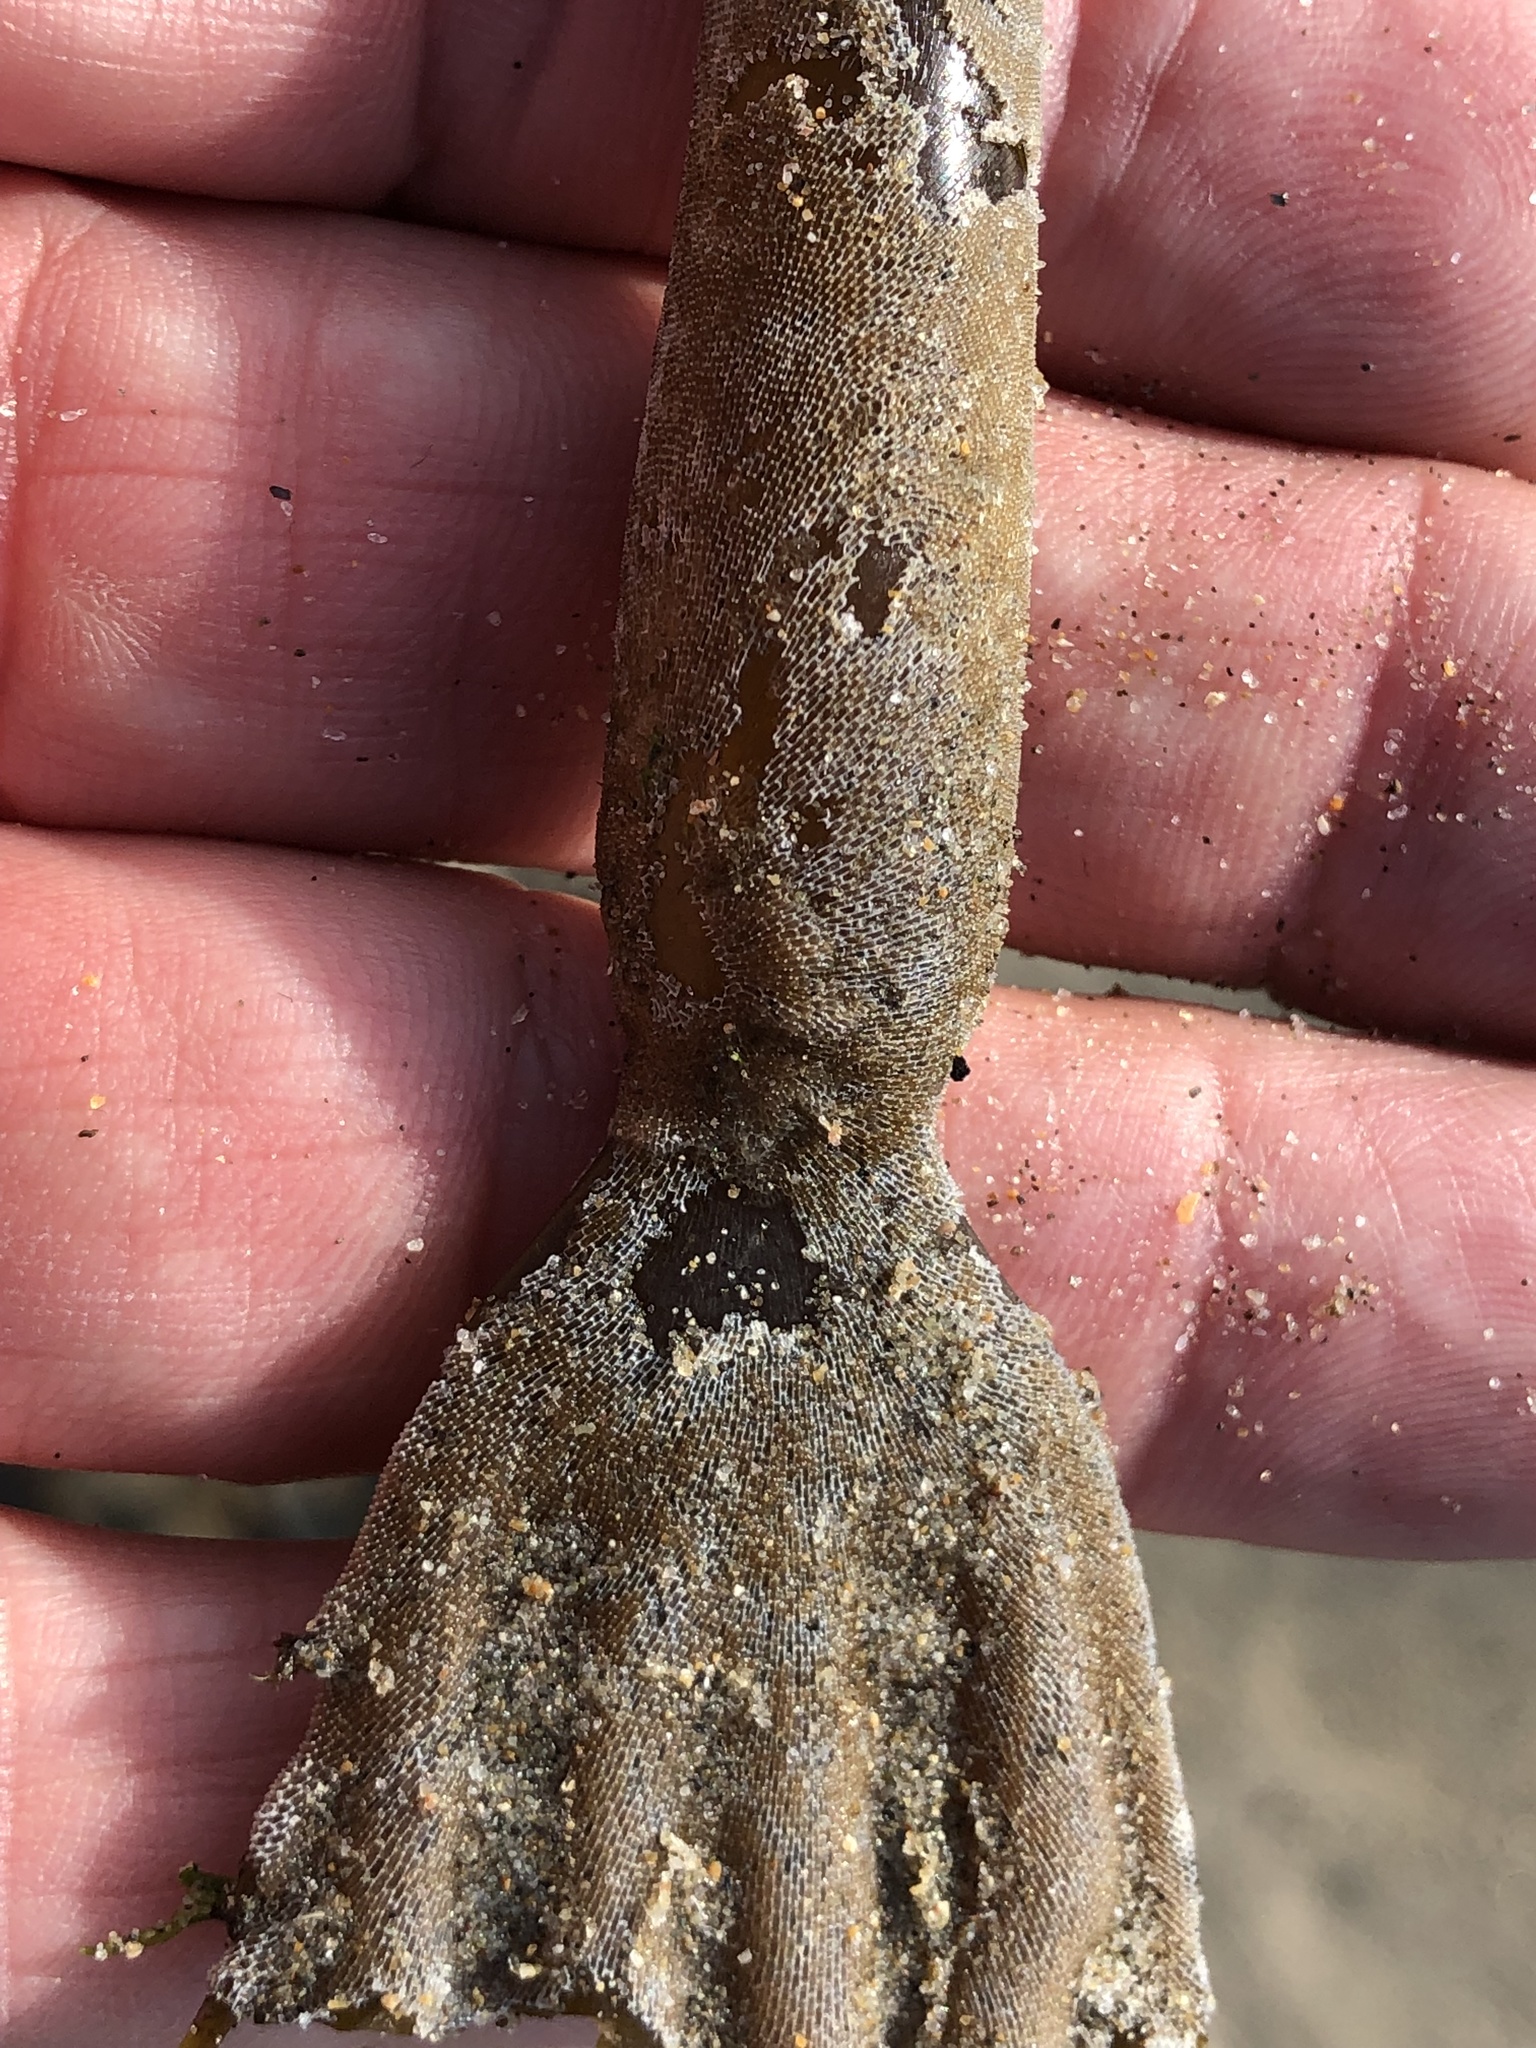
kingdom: Animalia
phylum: Bryozoa
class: Gymnolaemata
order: Cheilostomatida
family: Membraniporidae
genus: Membranipora
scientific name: Membranipora membranacea
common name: Sea mat
